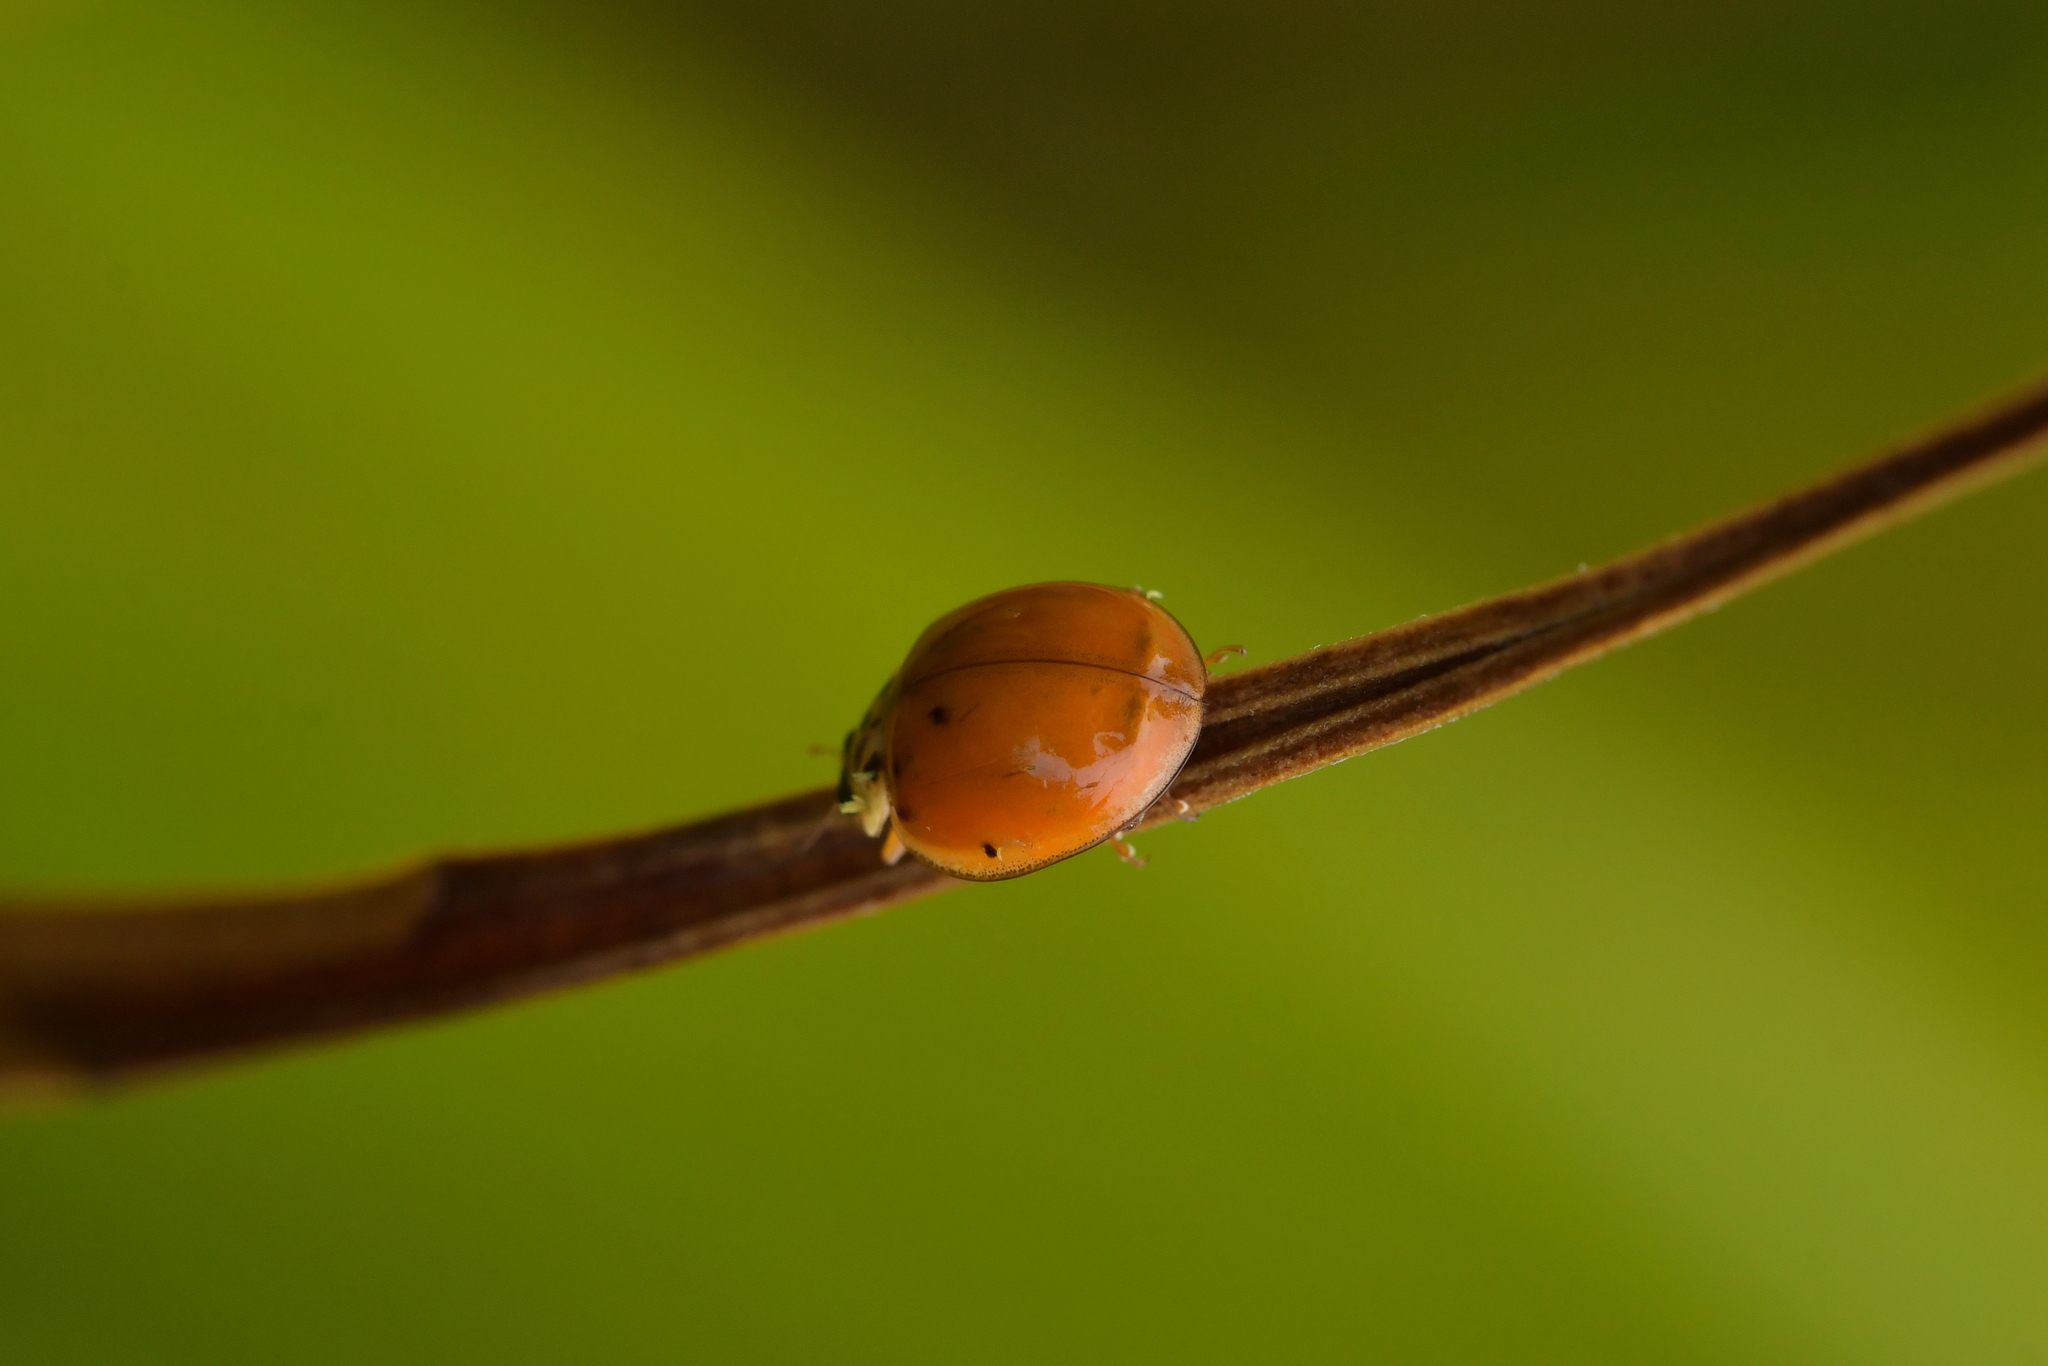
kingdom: Animalia
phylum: Arthropoda
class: Insecta
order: Coleoptera
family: Coccinellidae
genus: Harmonia
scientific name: Harmonia axyridis
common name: Harlequin ladybird
